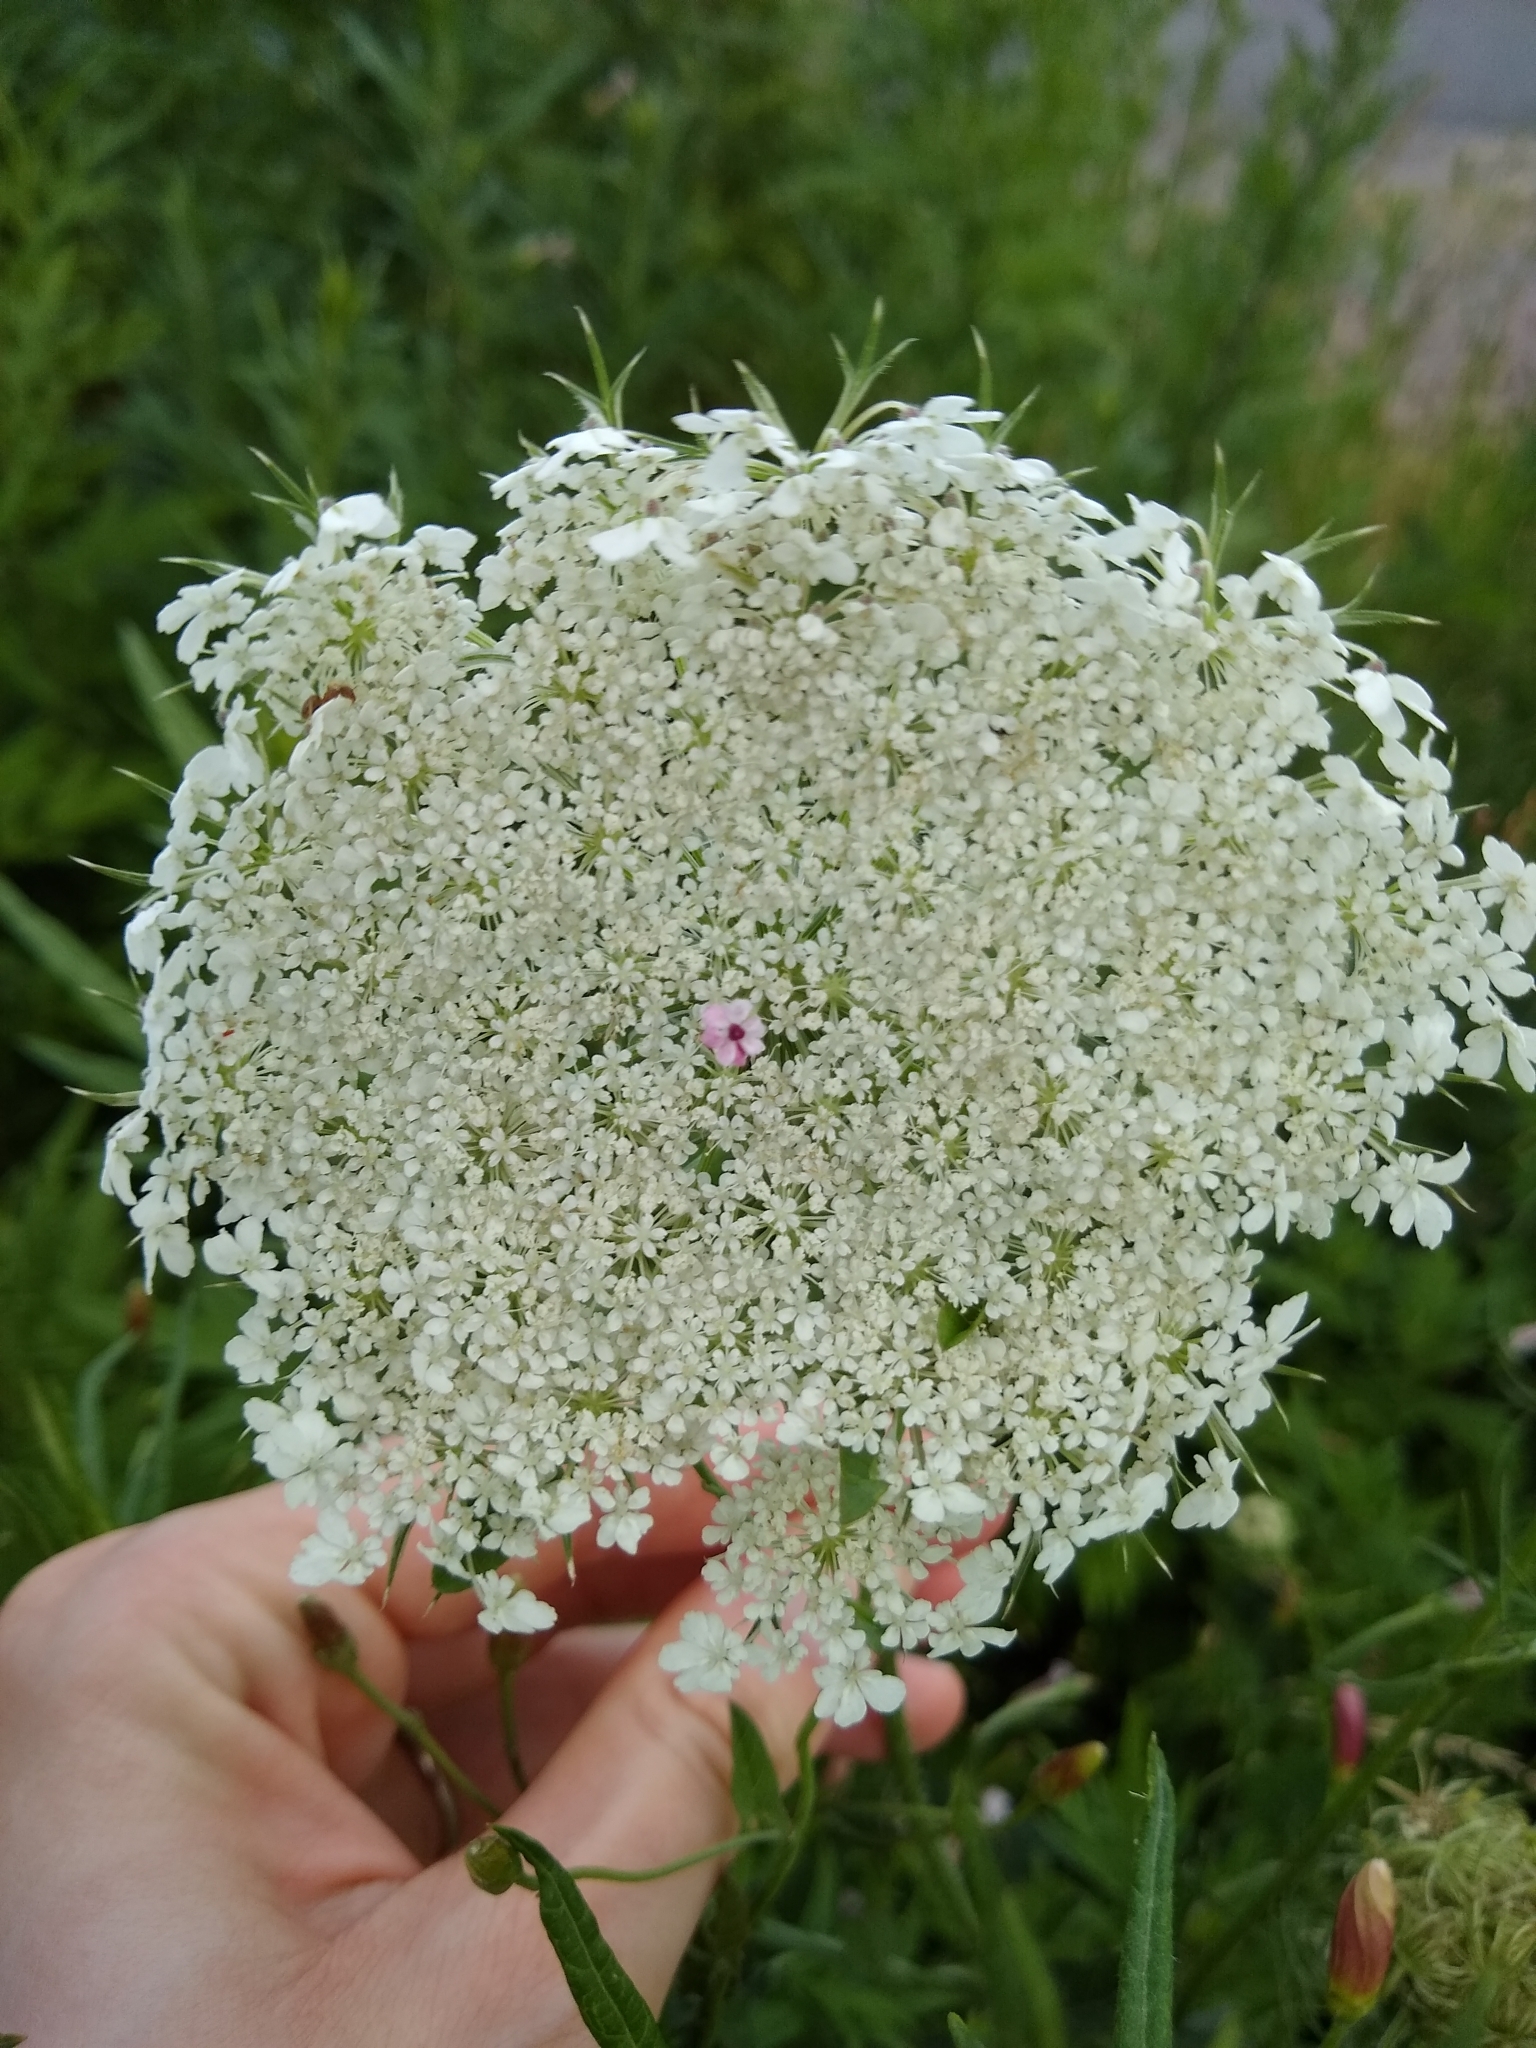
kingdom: Plantae
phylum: Tracheophyta
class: Magnoliopsida
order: Apiales
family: Apiaceae
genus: Daucus
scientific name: Daucus carota
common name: Wild carrot
